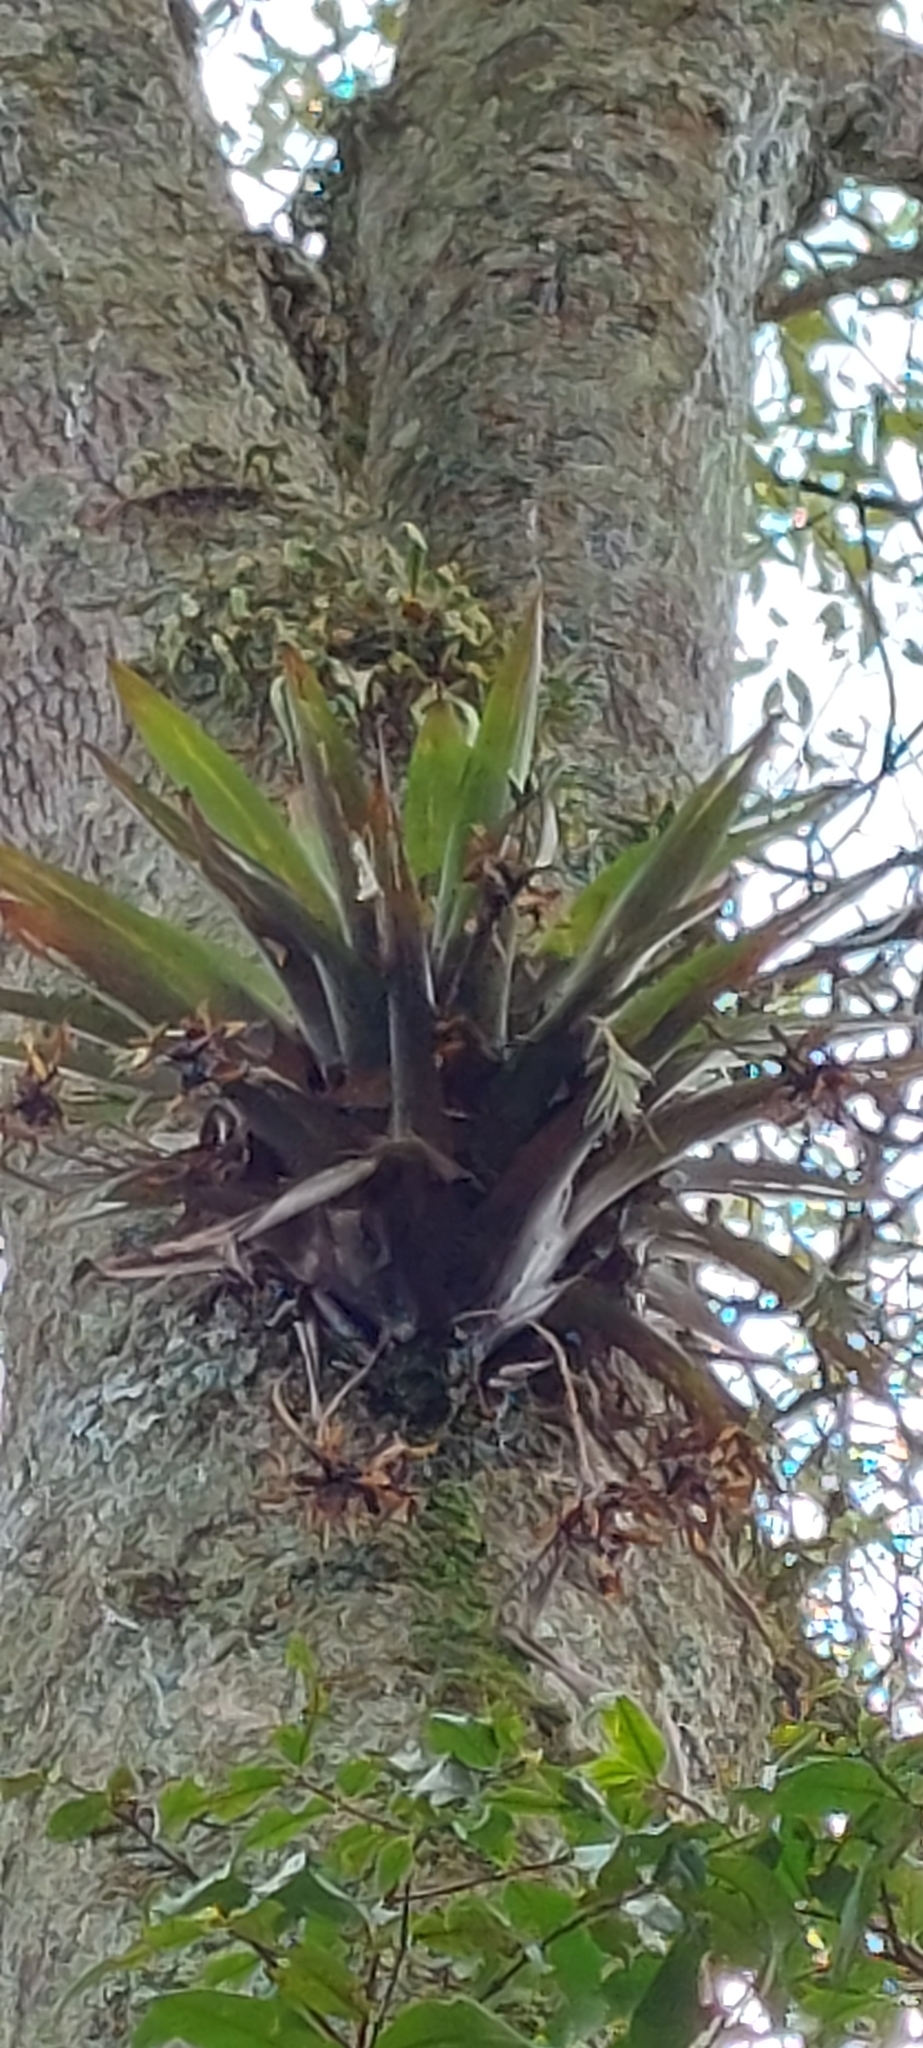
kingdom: Plantae
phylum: Tracheophyta
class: Liliopsida
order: Poales
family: Bromeliaceae
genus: Tillandsia
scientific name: Tillandsia complanata
